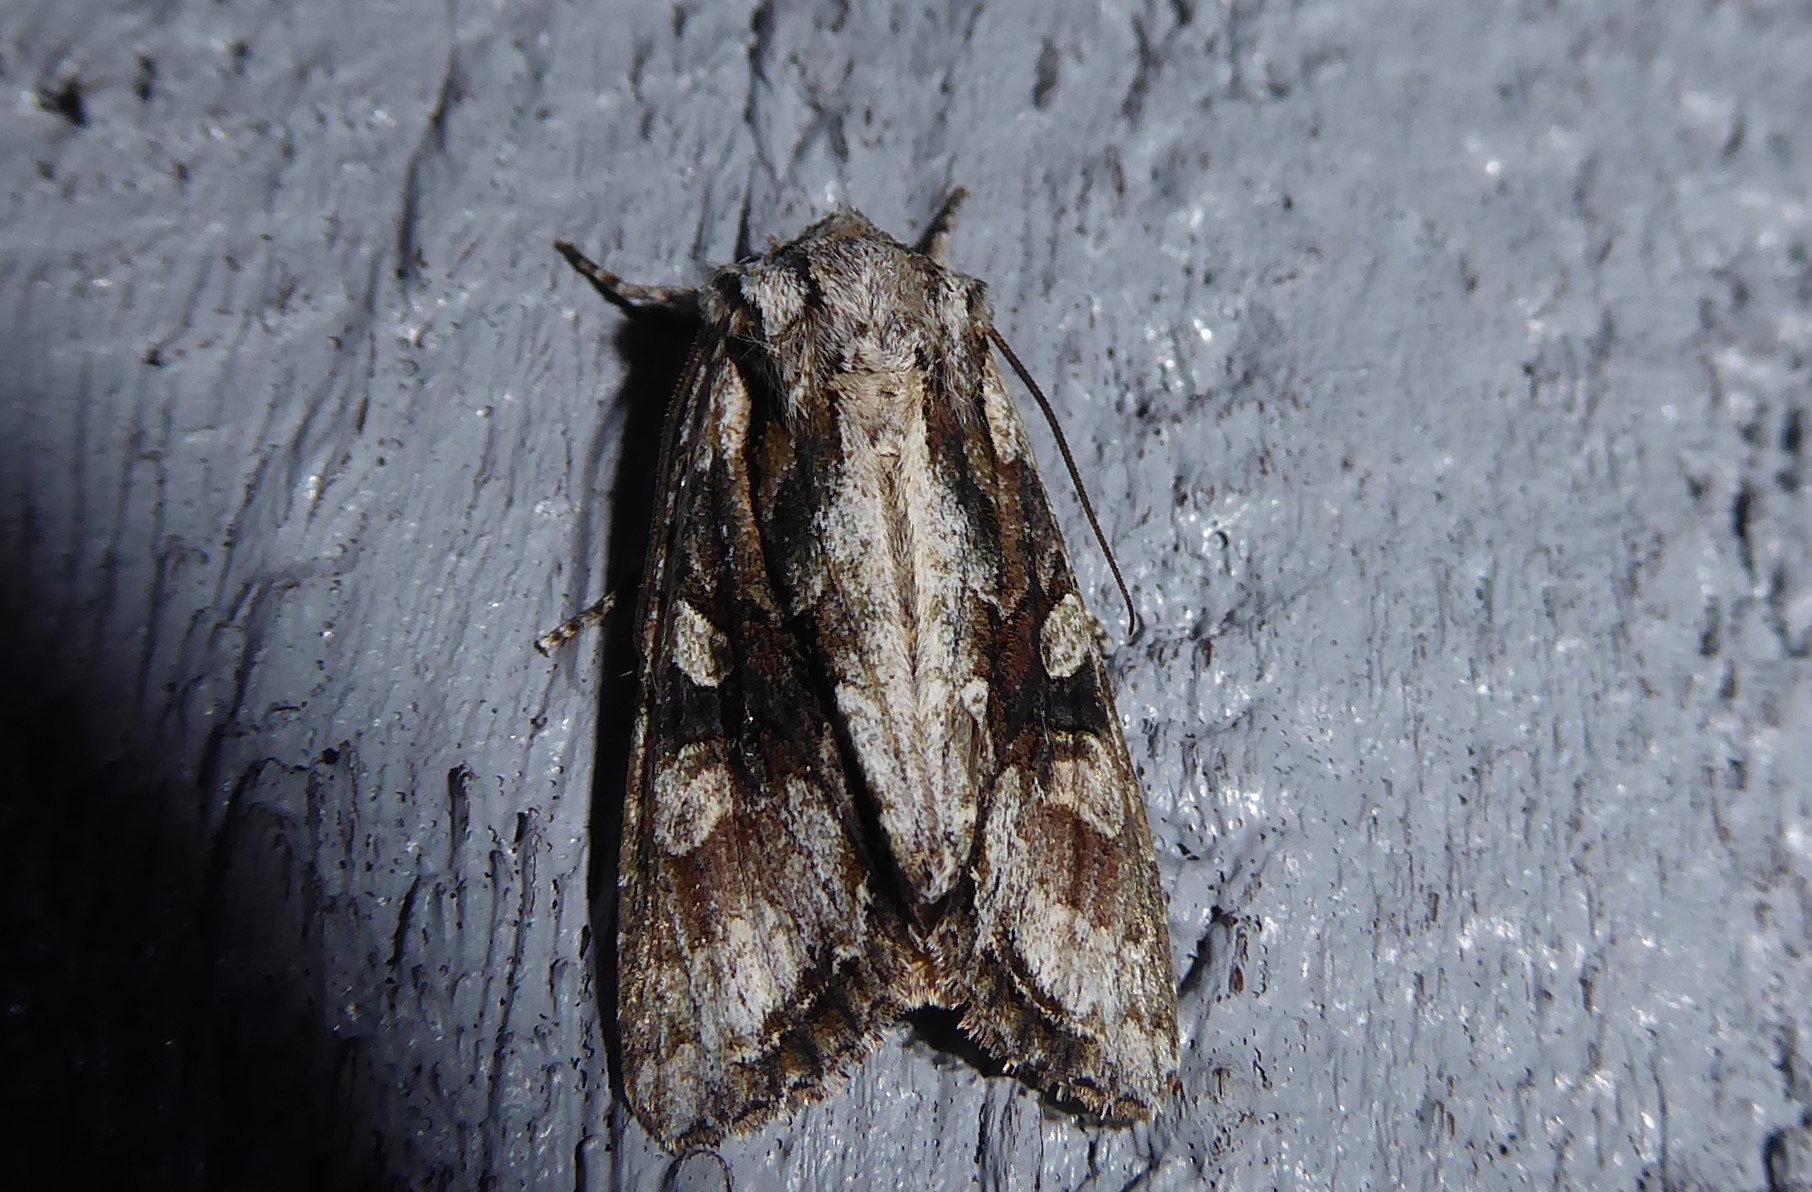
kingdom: Animalia
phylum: Arthropoda
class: Insecta
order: Lepidoptera
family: Noctuidae
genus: Ichneutica
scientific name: Ichneutica mutans
